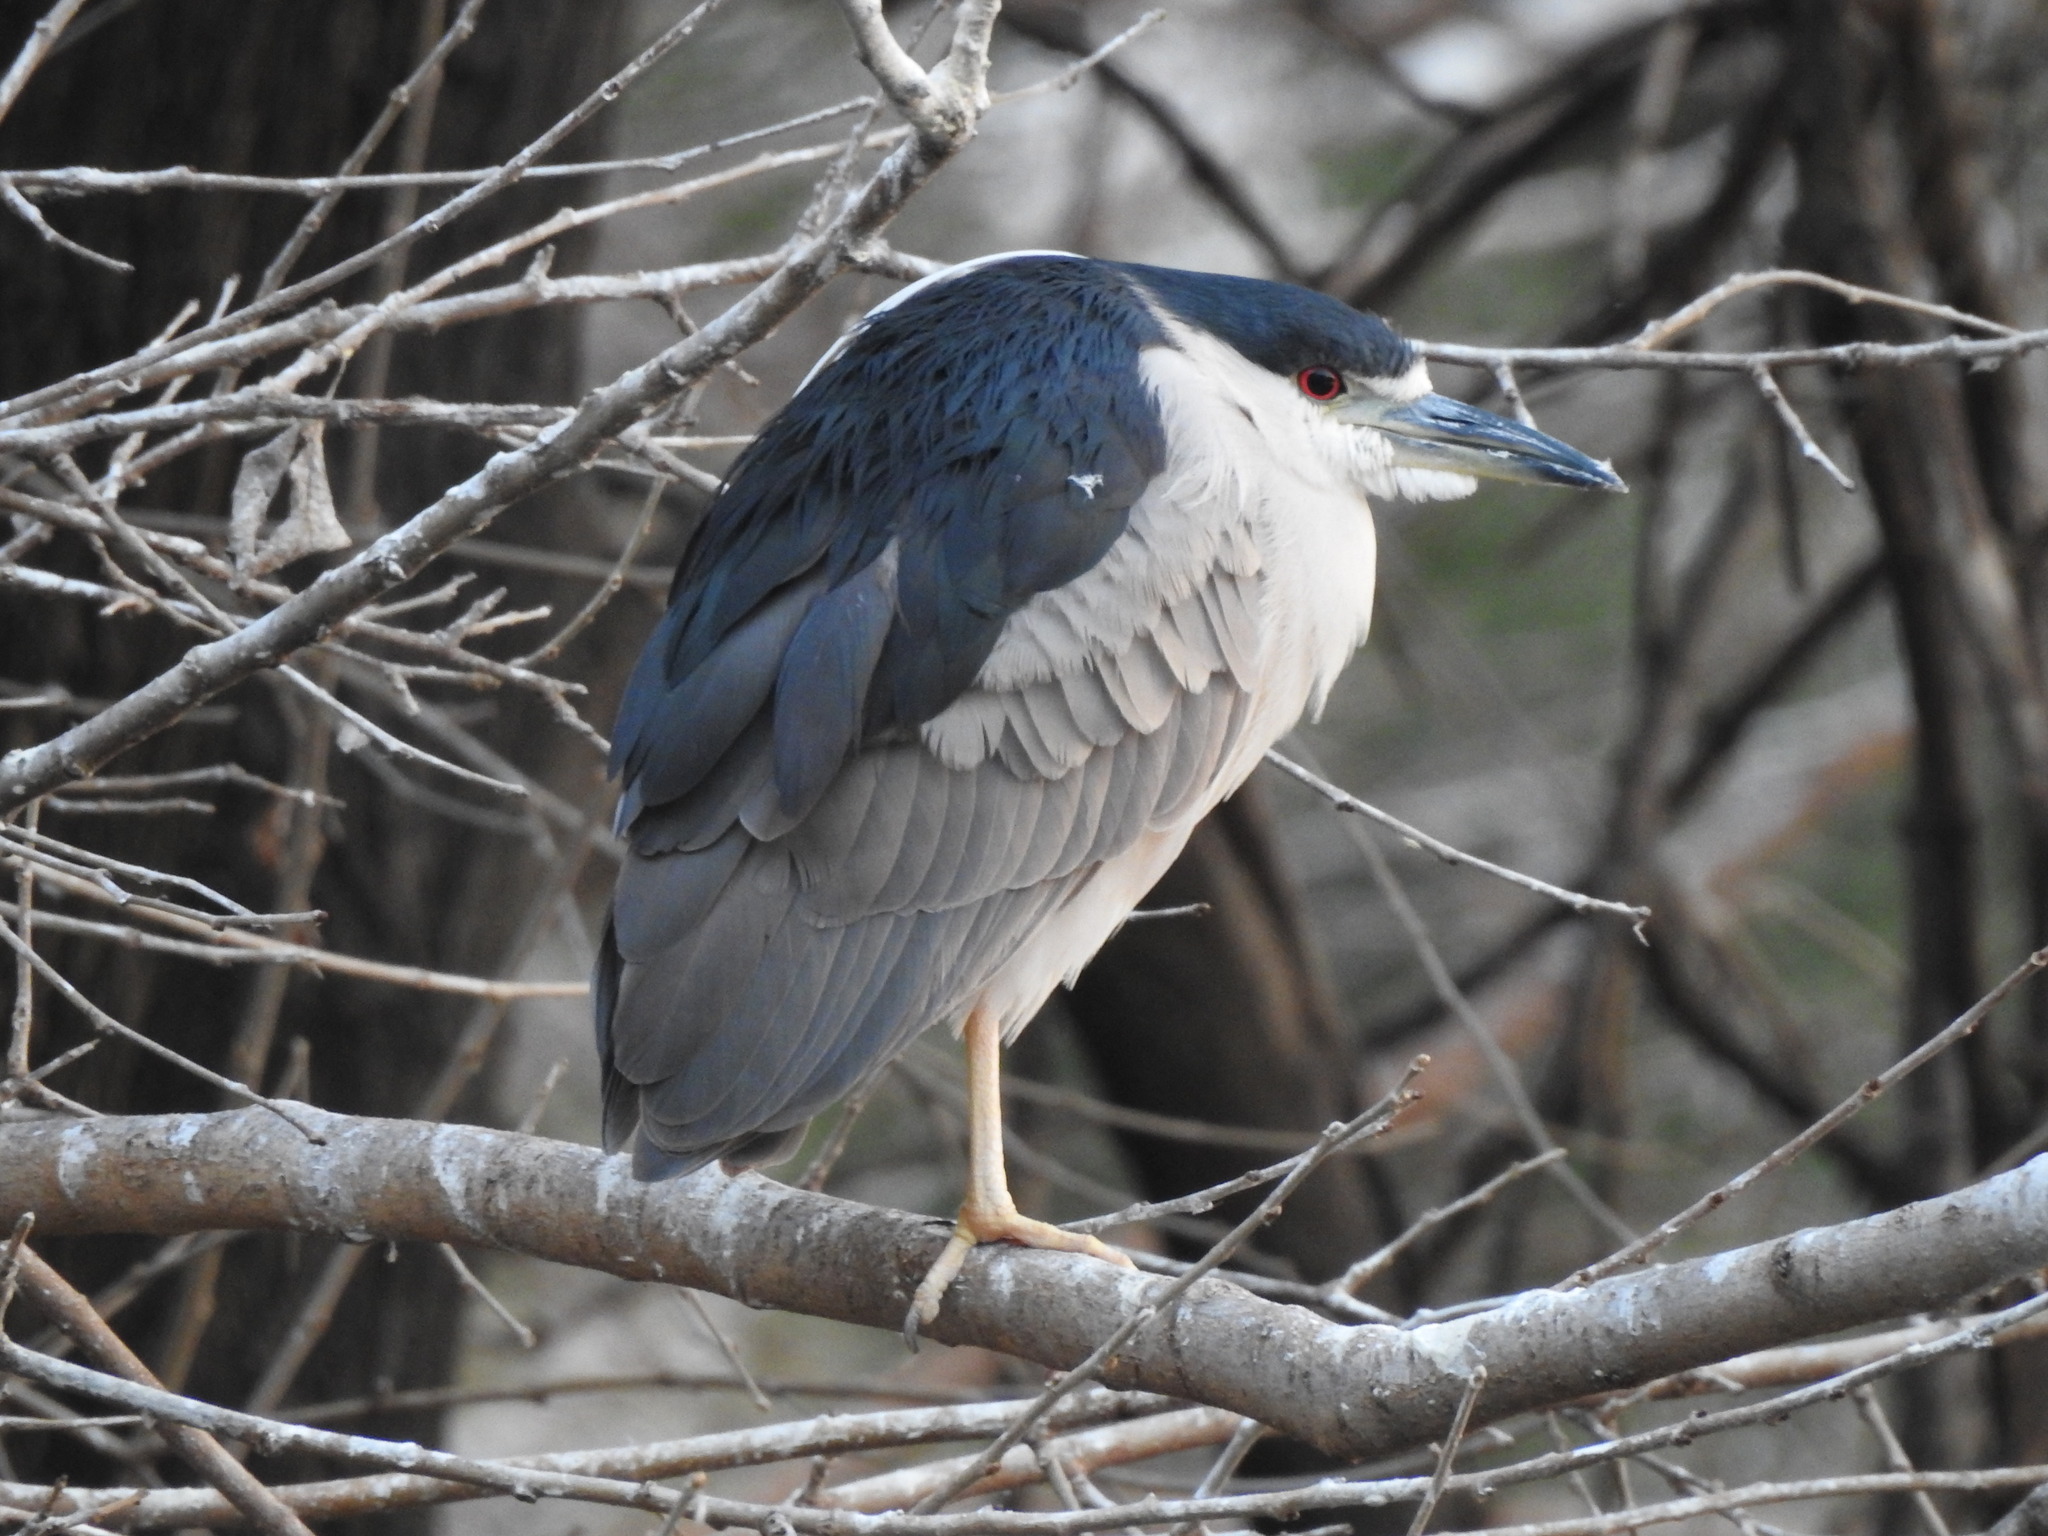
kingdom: Animalia
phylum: Chordata
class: Aves
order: Pelecaniformes
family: Ardeidae
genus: Nycticorax
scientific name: Nycticorax nycticorax
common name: Black-crowned night heron
